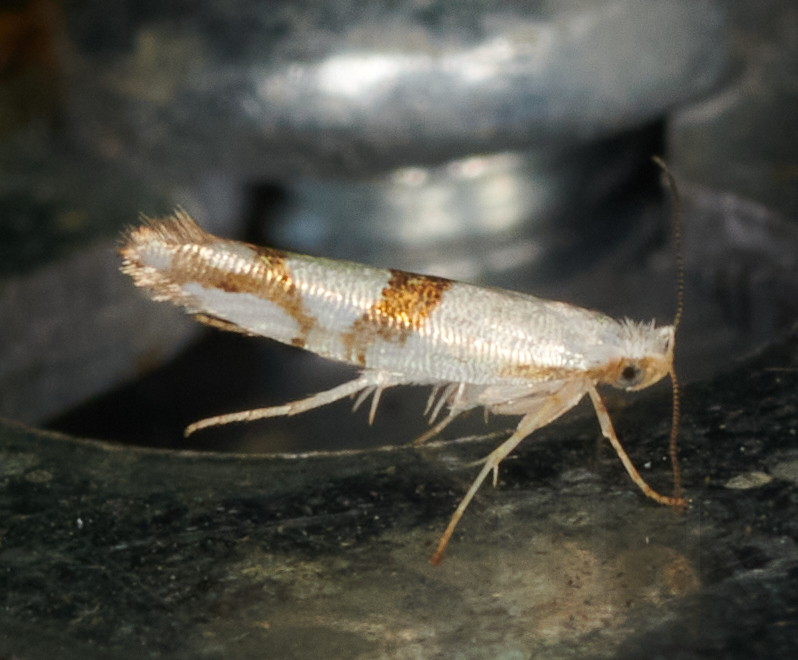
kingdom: Animalia
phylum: Arthropoda
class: Insecta
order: Lepidoptera
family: Argyresthiidae
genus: Argyresthia
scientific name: Argyresthia oreasella
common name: Cherry shoot borer moth
